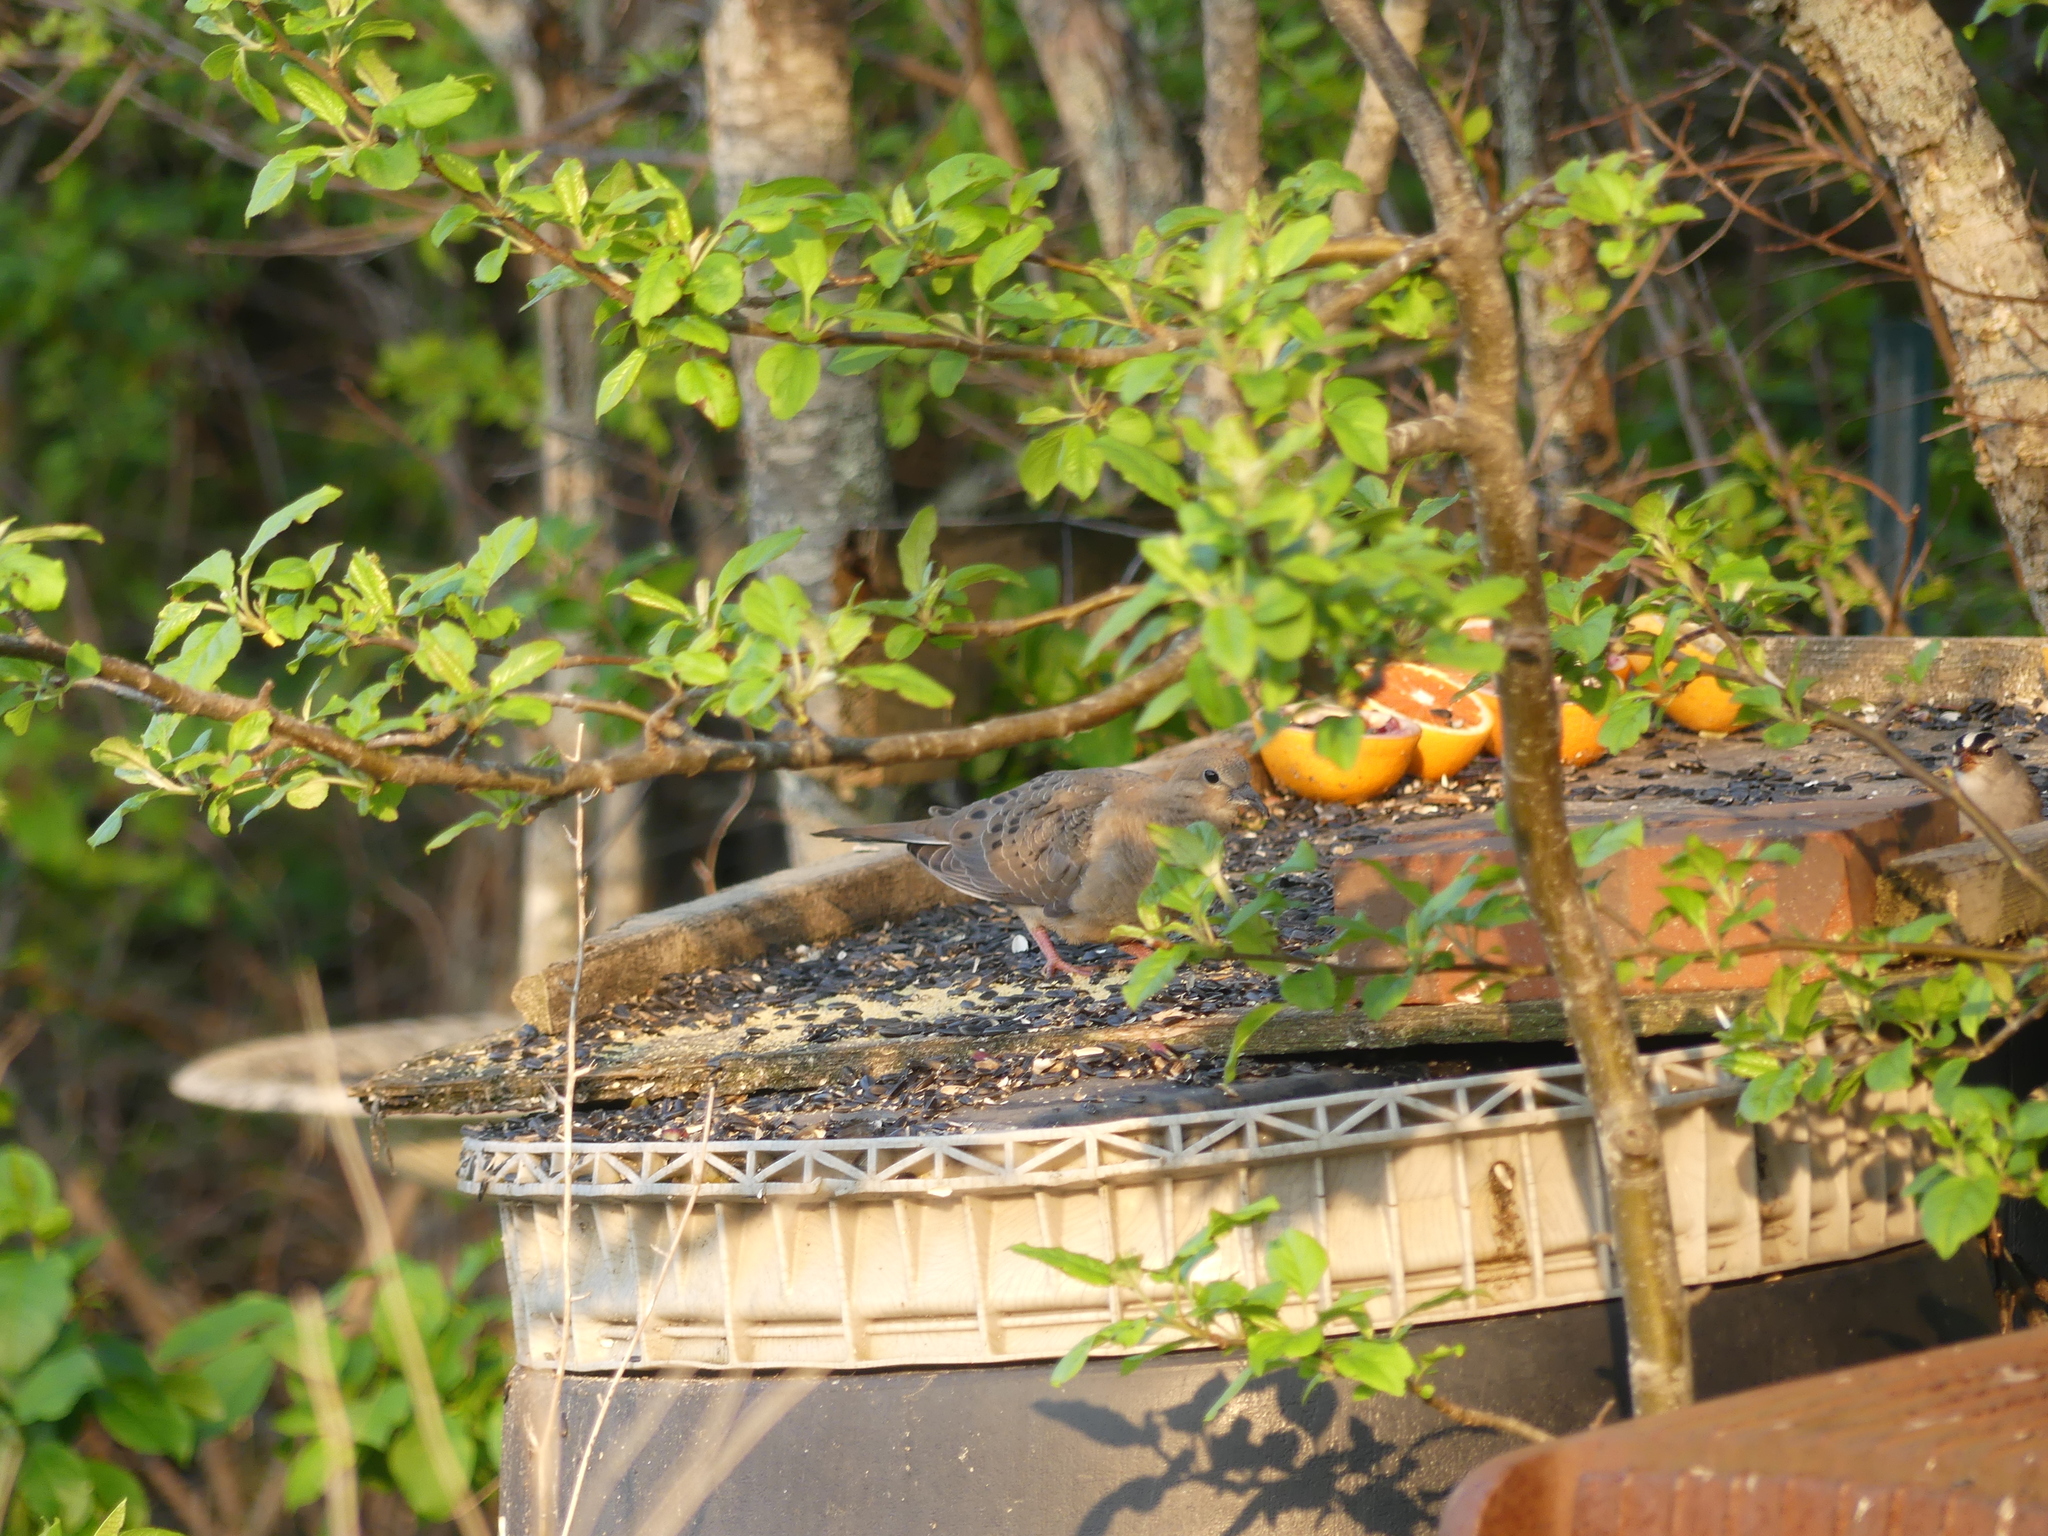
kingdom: Animalia
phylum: Chordata
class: Aves
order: Columbiformes
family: Columbidae
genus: Zenaida
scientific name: Zenaida macroura
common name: Mourning dove
